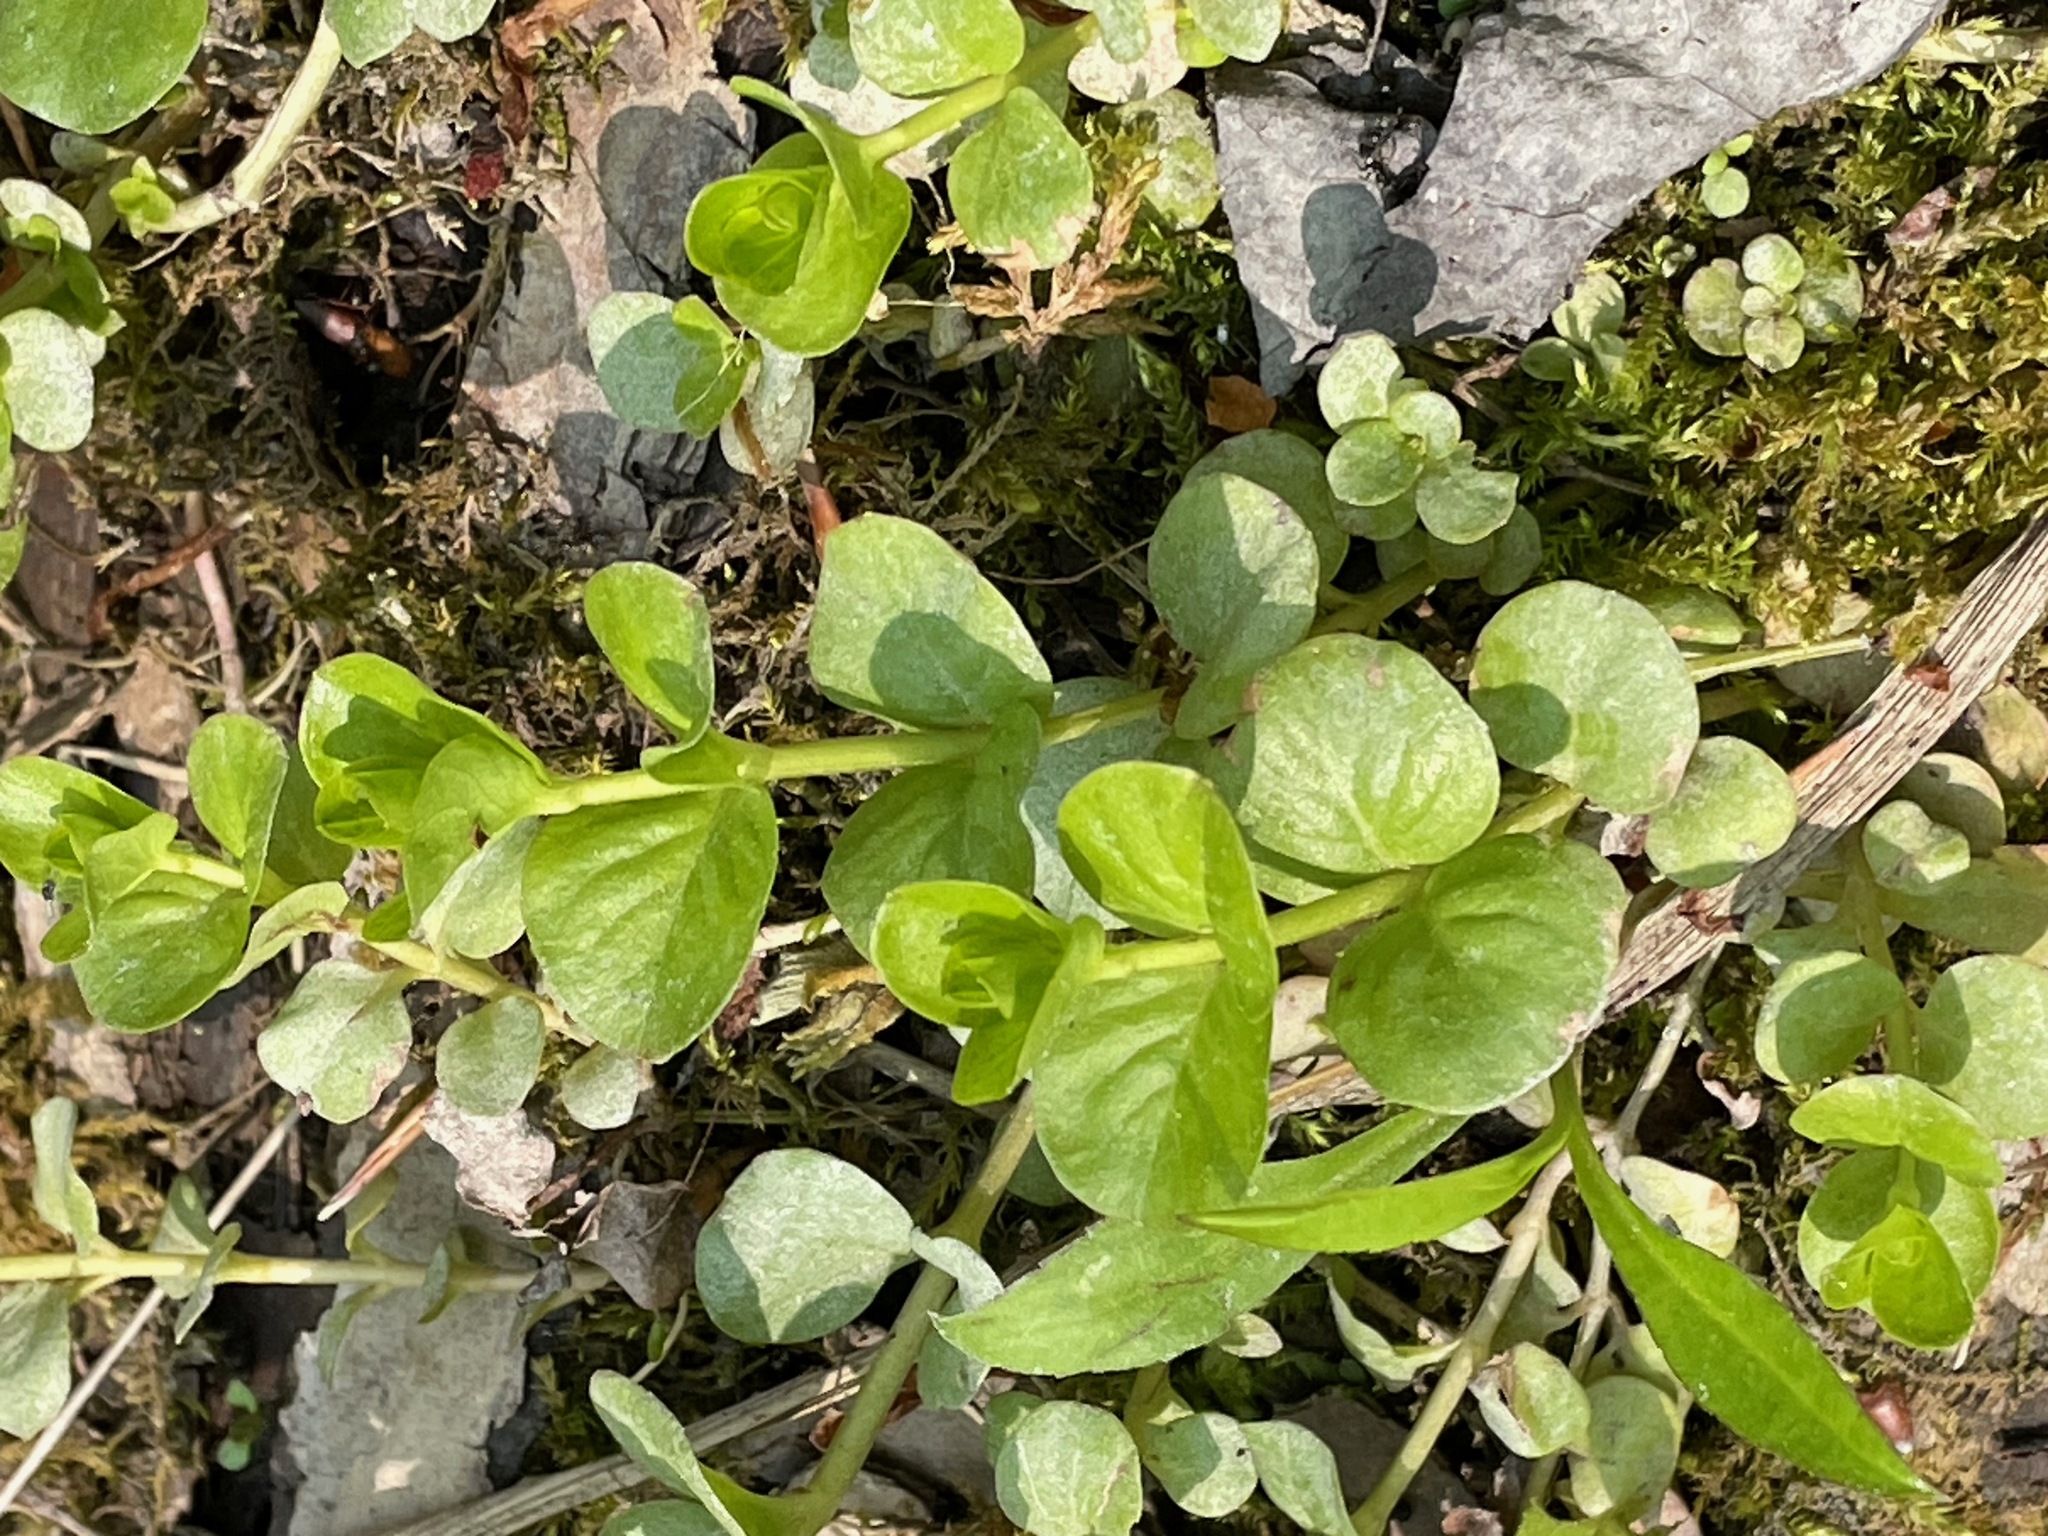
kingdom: Plantae
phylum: Tracheophyta
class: Magnoliopsida
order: Ericales
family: Primulaceae
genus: Lysimachia
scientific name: Lysimachia nummularia
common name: Moneywort
